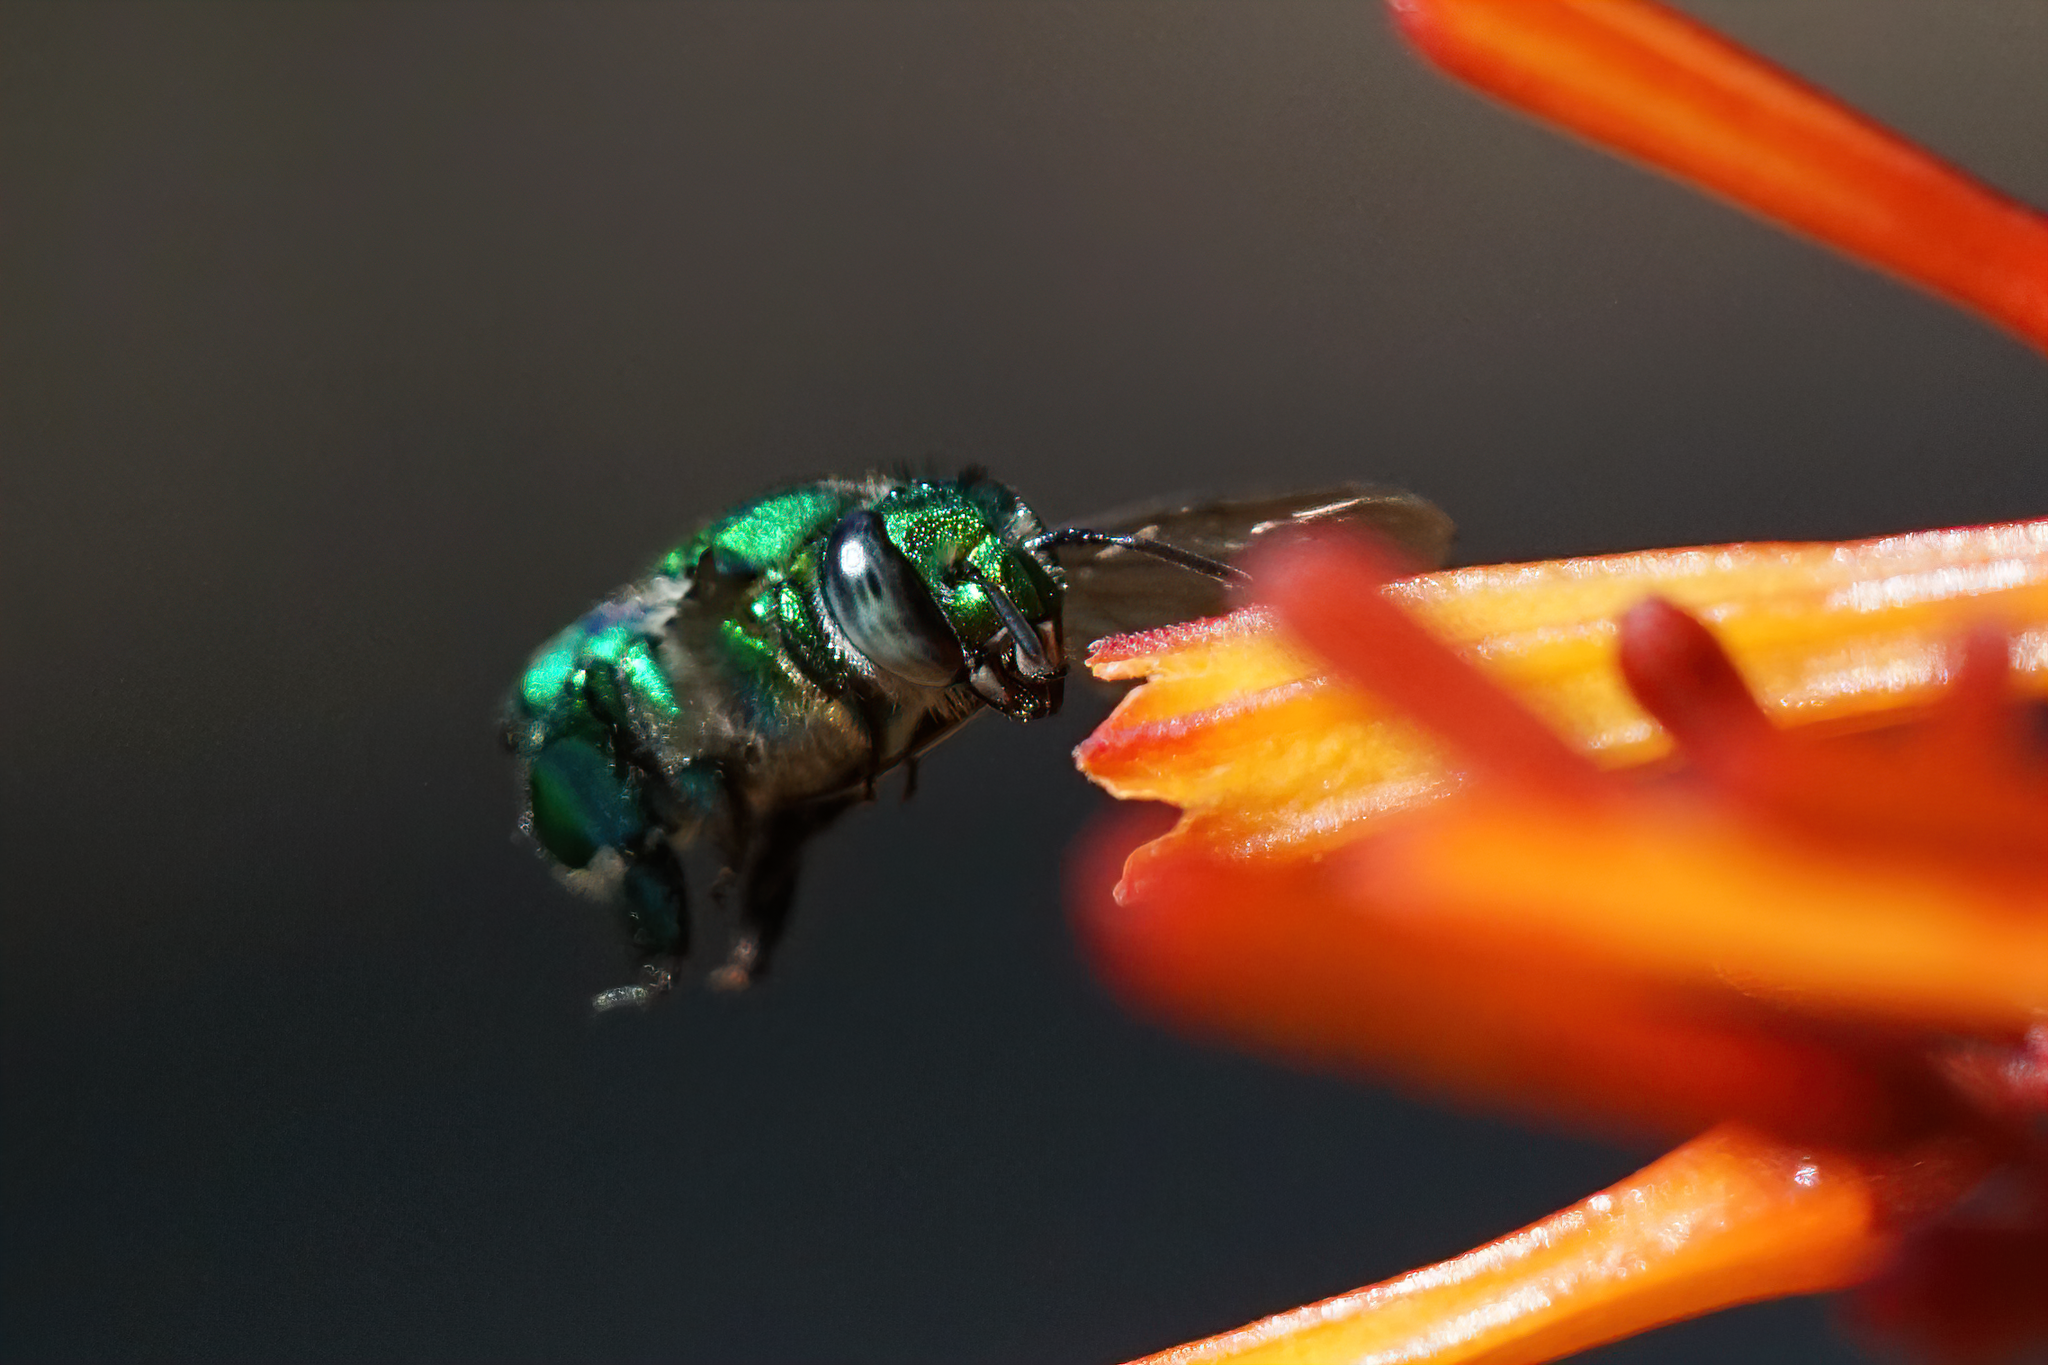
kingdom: Animalia
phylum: Arthropoda
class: Insecta
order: Hymenoptera
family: Apidae
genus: Euglossa
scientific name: Euglossa dilemma
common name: Green orchid bee
